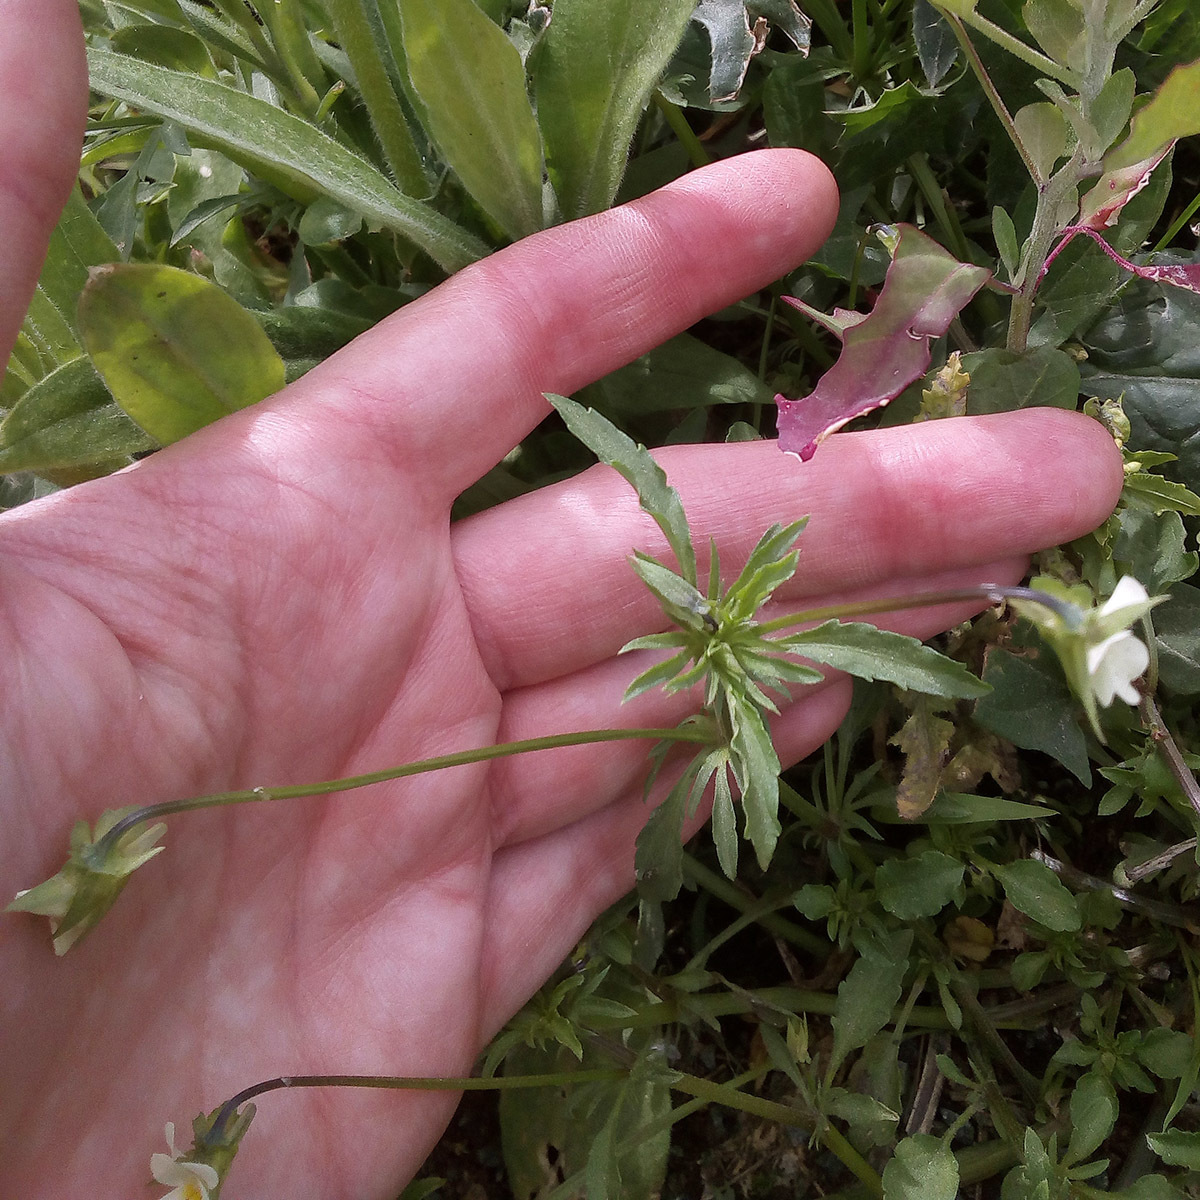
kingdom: Plantae
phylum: Tracheophyta
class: Magnoliopsida
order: Malpighiales
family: Violaceae
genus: Viola
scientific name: Viola arvensis
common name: Field pansy
